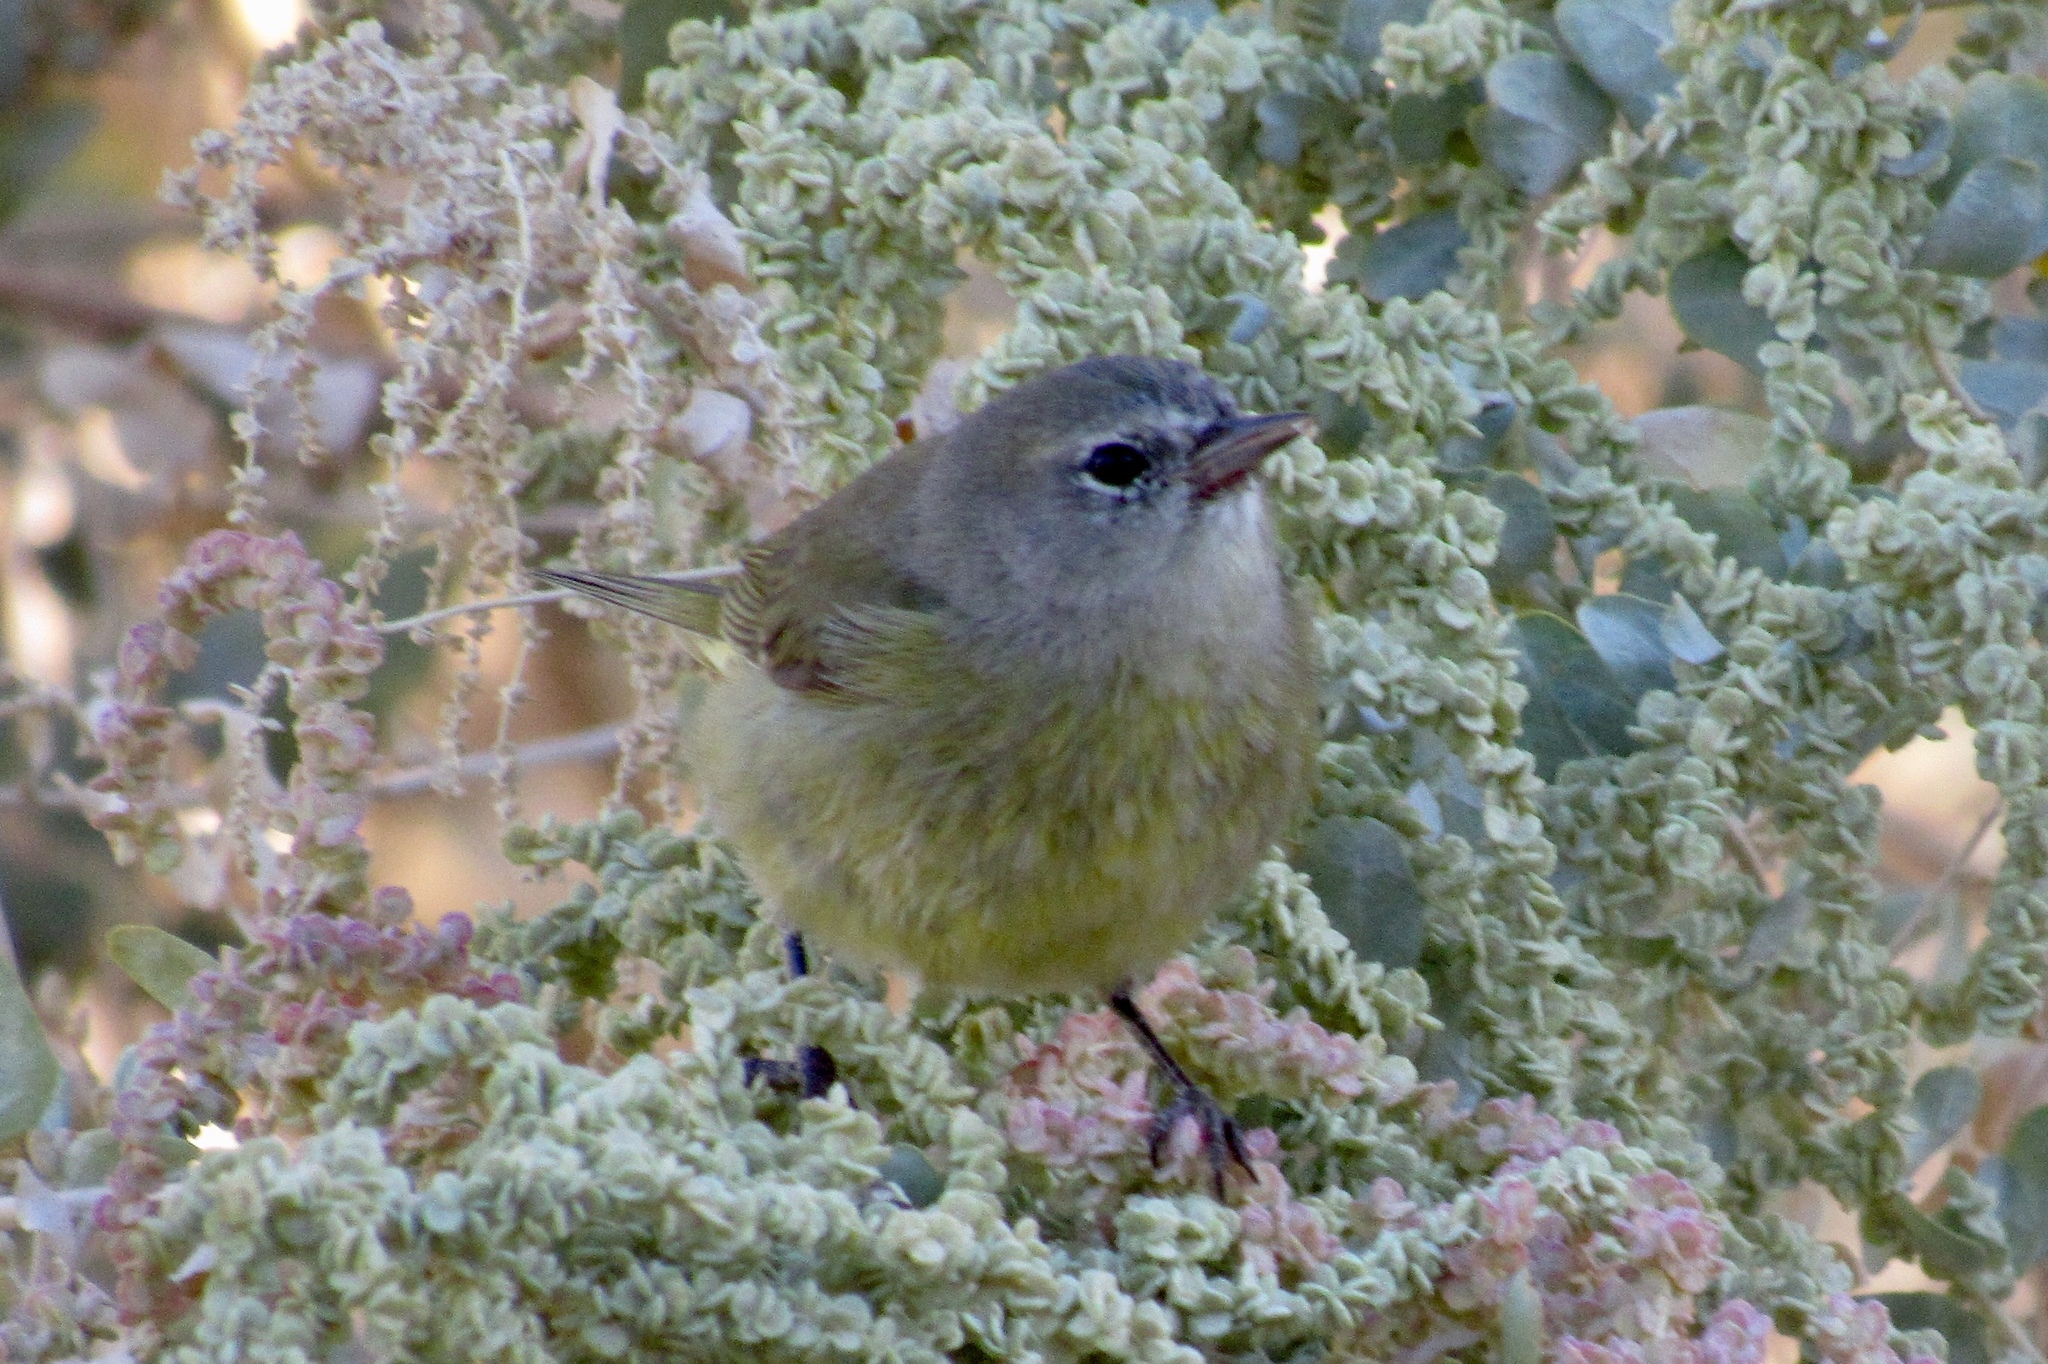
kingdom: Animalia
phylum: Chordata
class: Aves
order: Passeriformes
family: Parulidae
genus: Leiothlypis
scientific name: Leiothlypis celata
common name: Orange-crowned warbler
